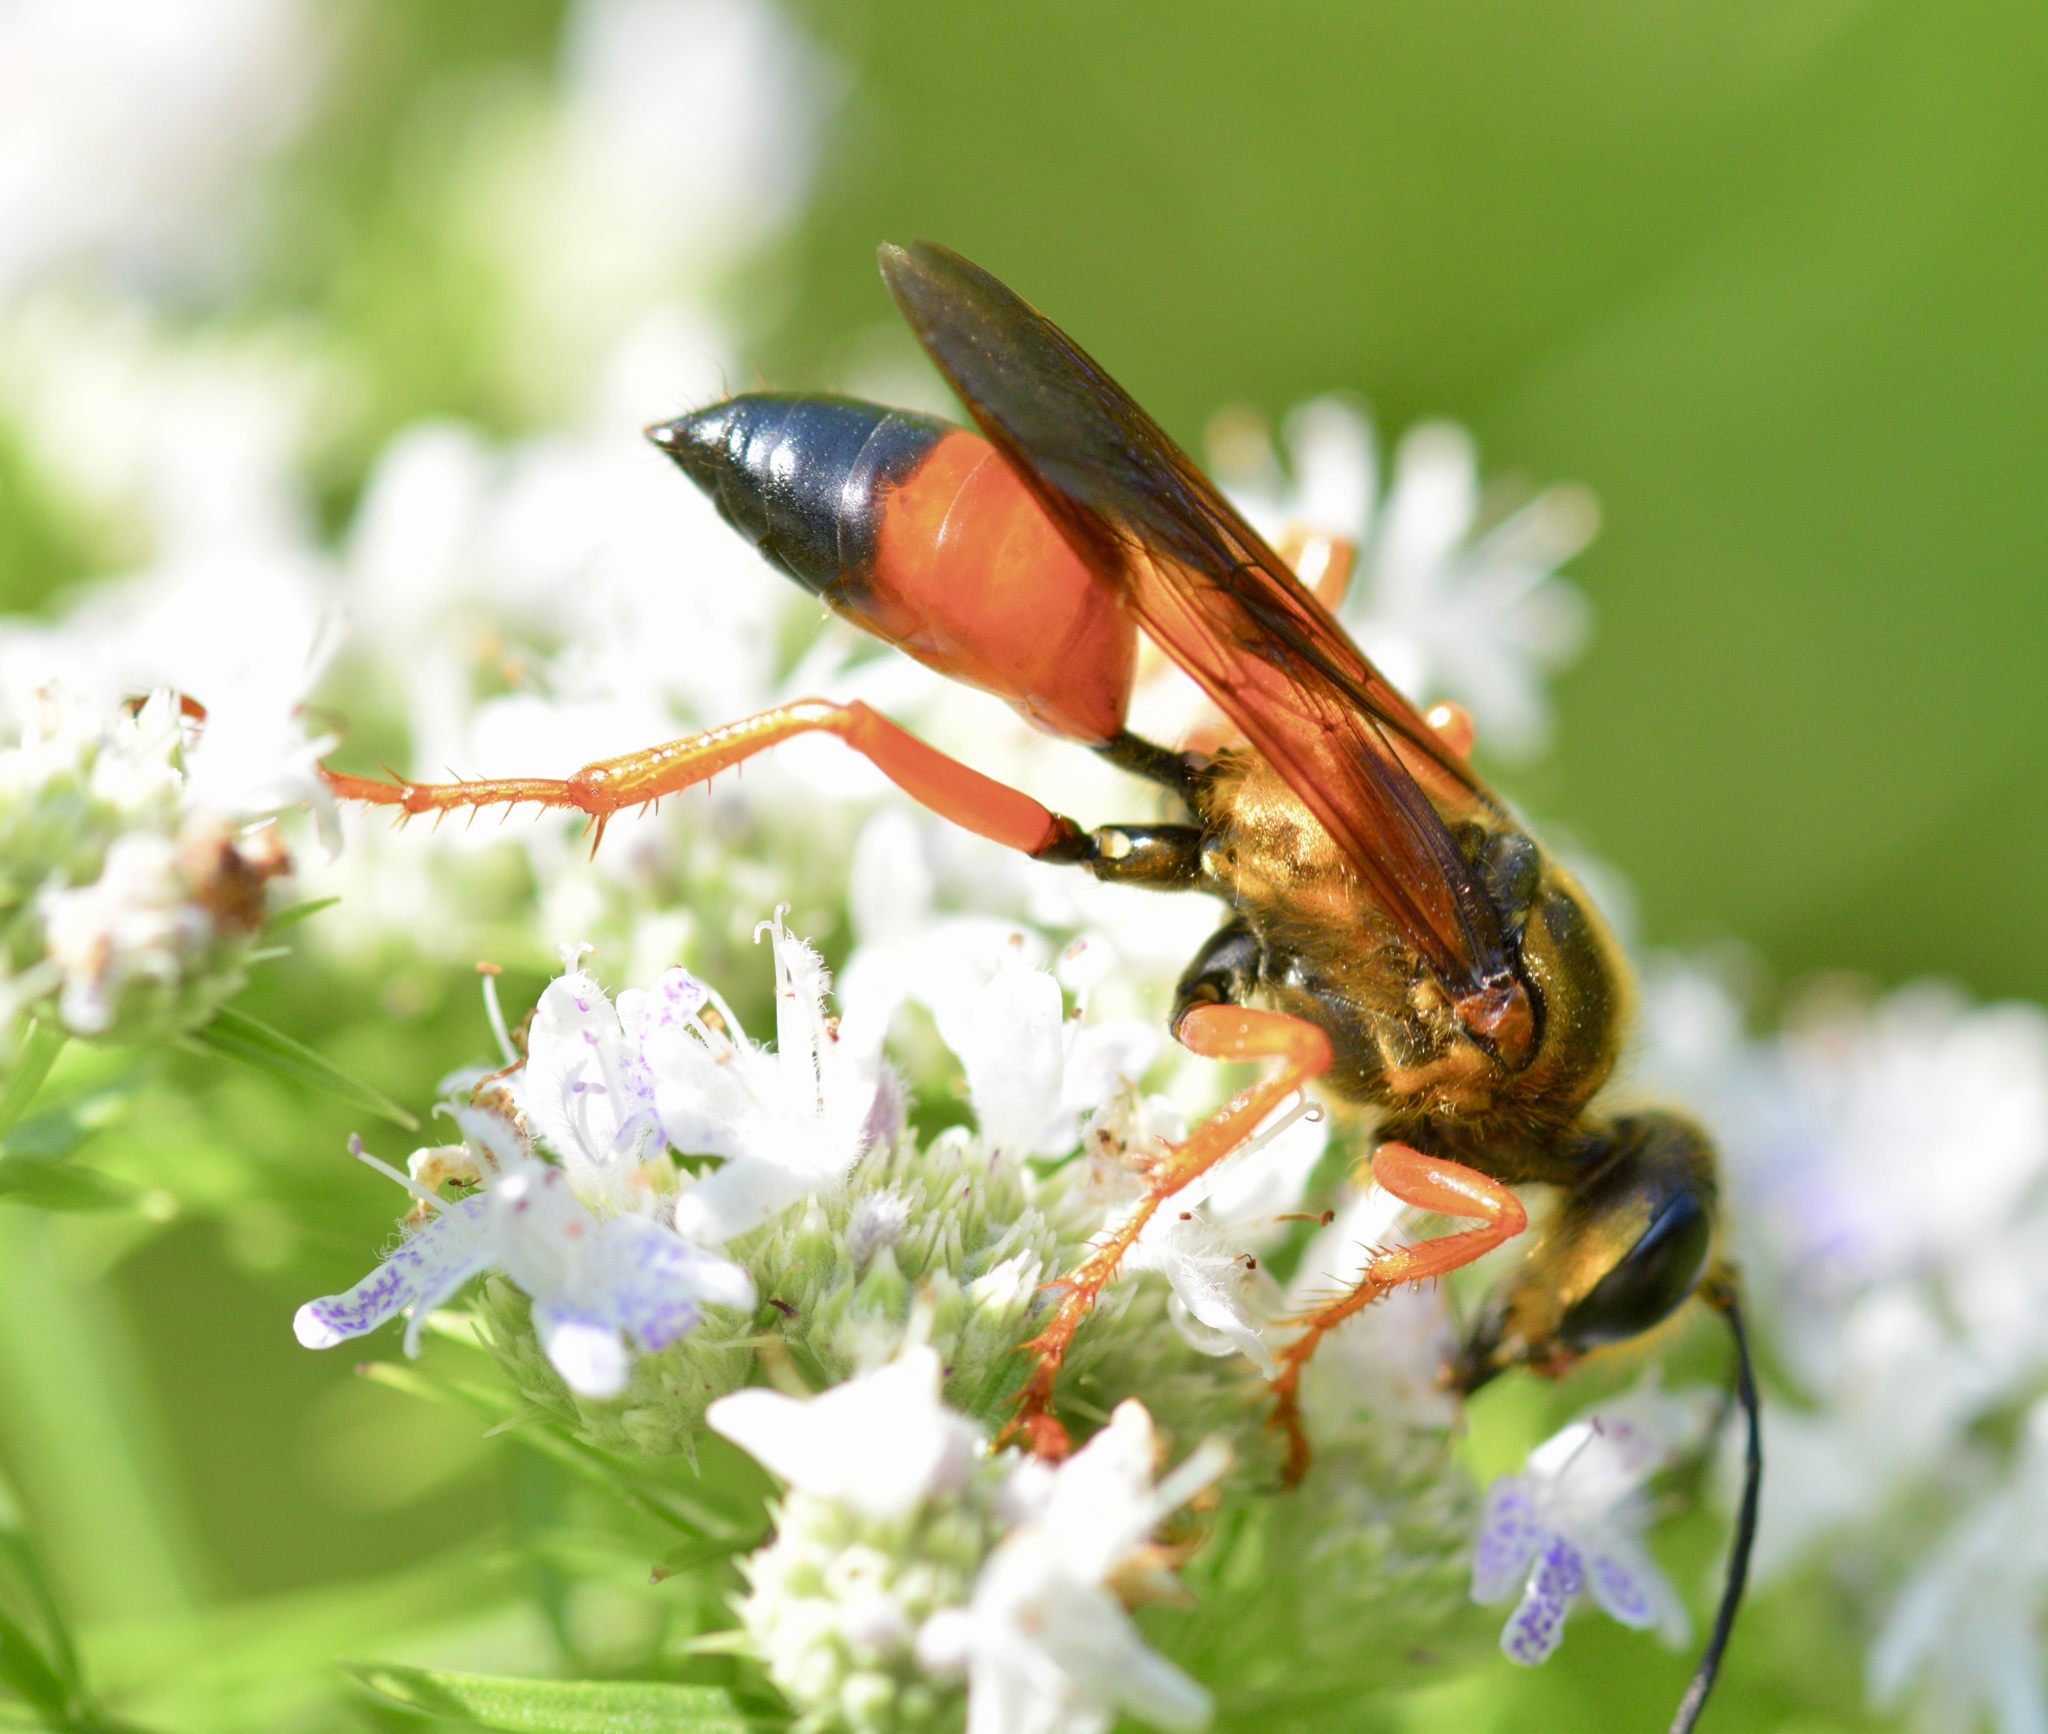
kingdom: Animalia
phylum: Arthropoda
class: Insecta
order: Hymenoptera
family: Sphecidae
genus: Sphex
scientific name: Sphex ichneumoneus
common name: Great golden digger wasp
